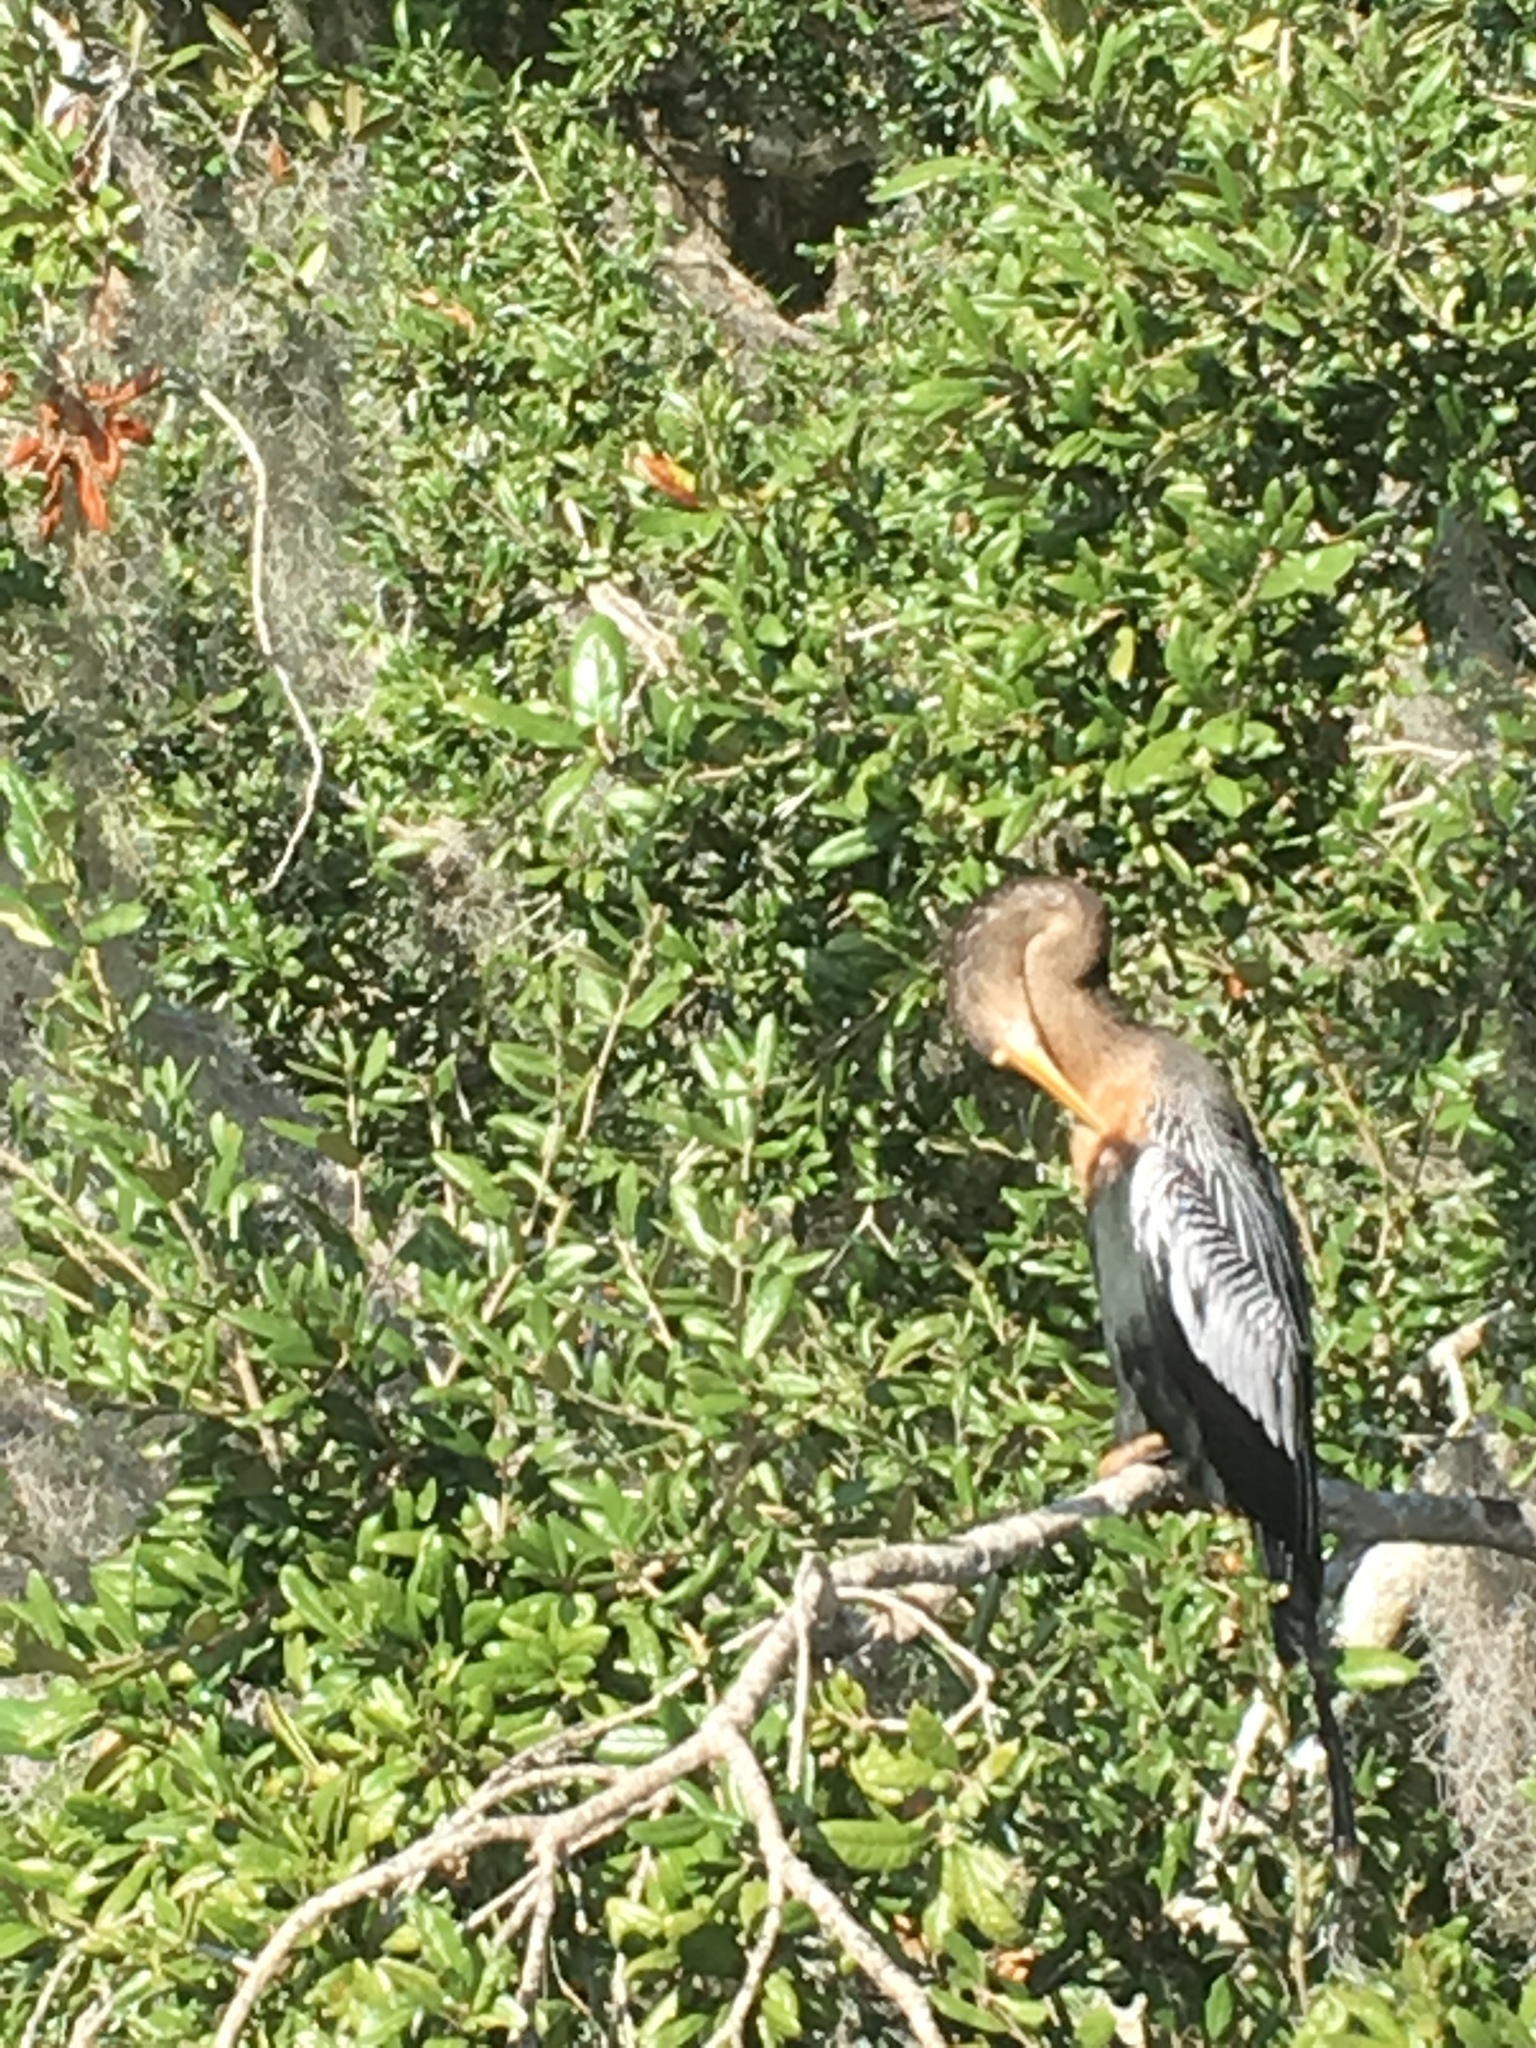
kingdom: Animalia
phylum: Chordata
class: Aves
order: Suliformes
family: Anhingidae
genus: Anhinga
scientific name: Anhinga anhinga
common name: Anhinga
